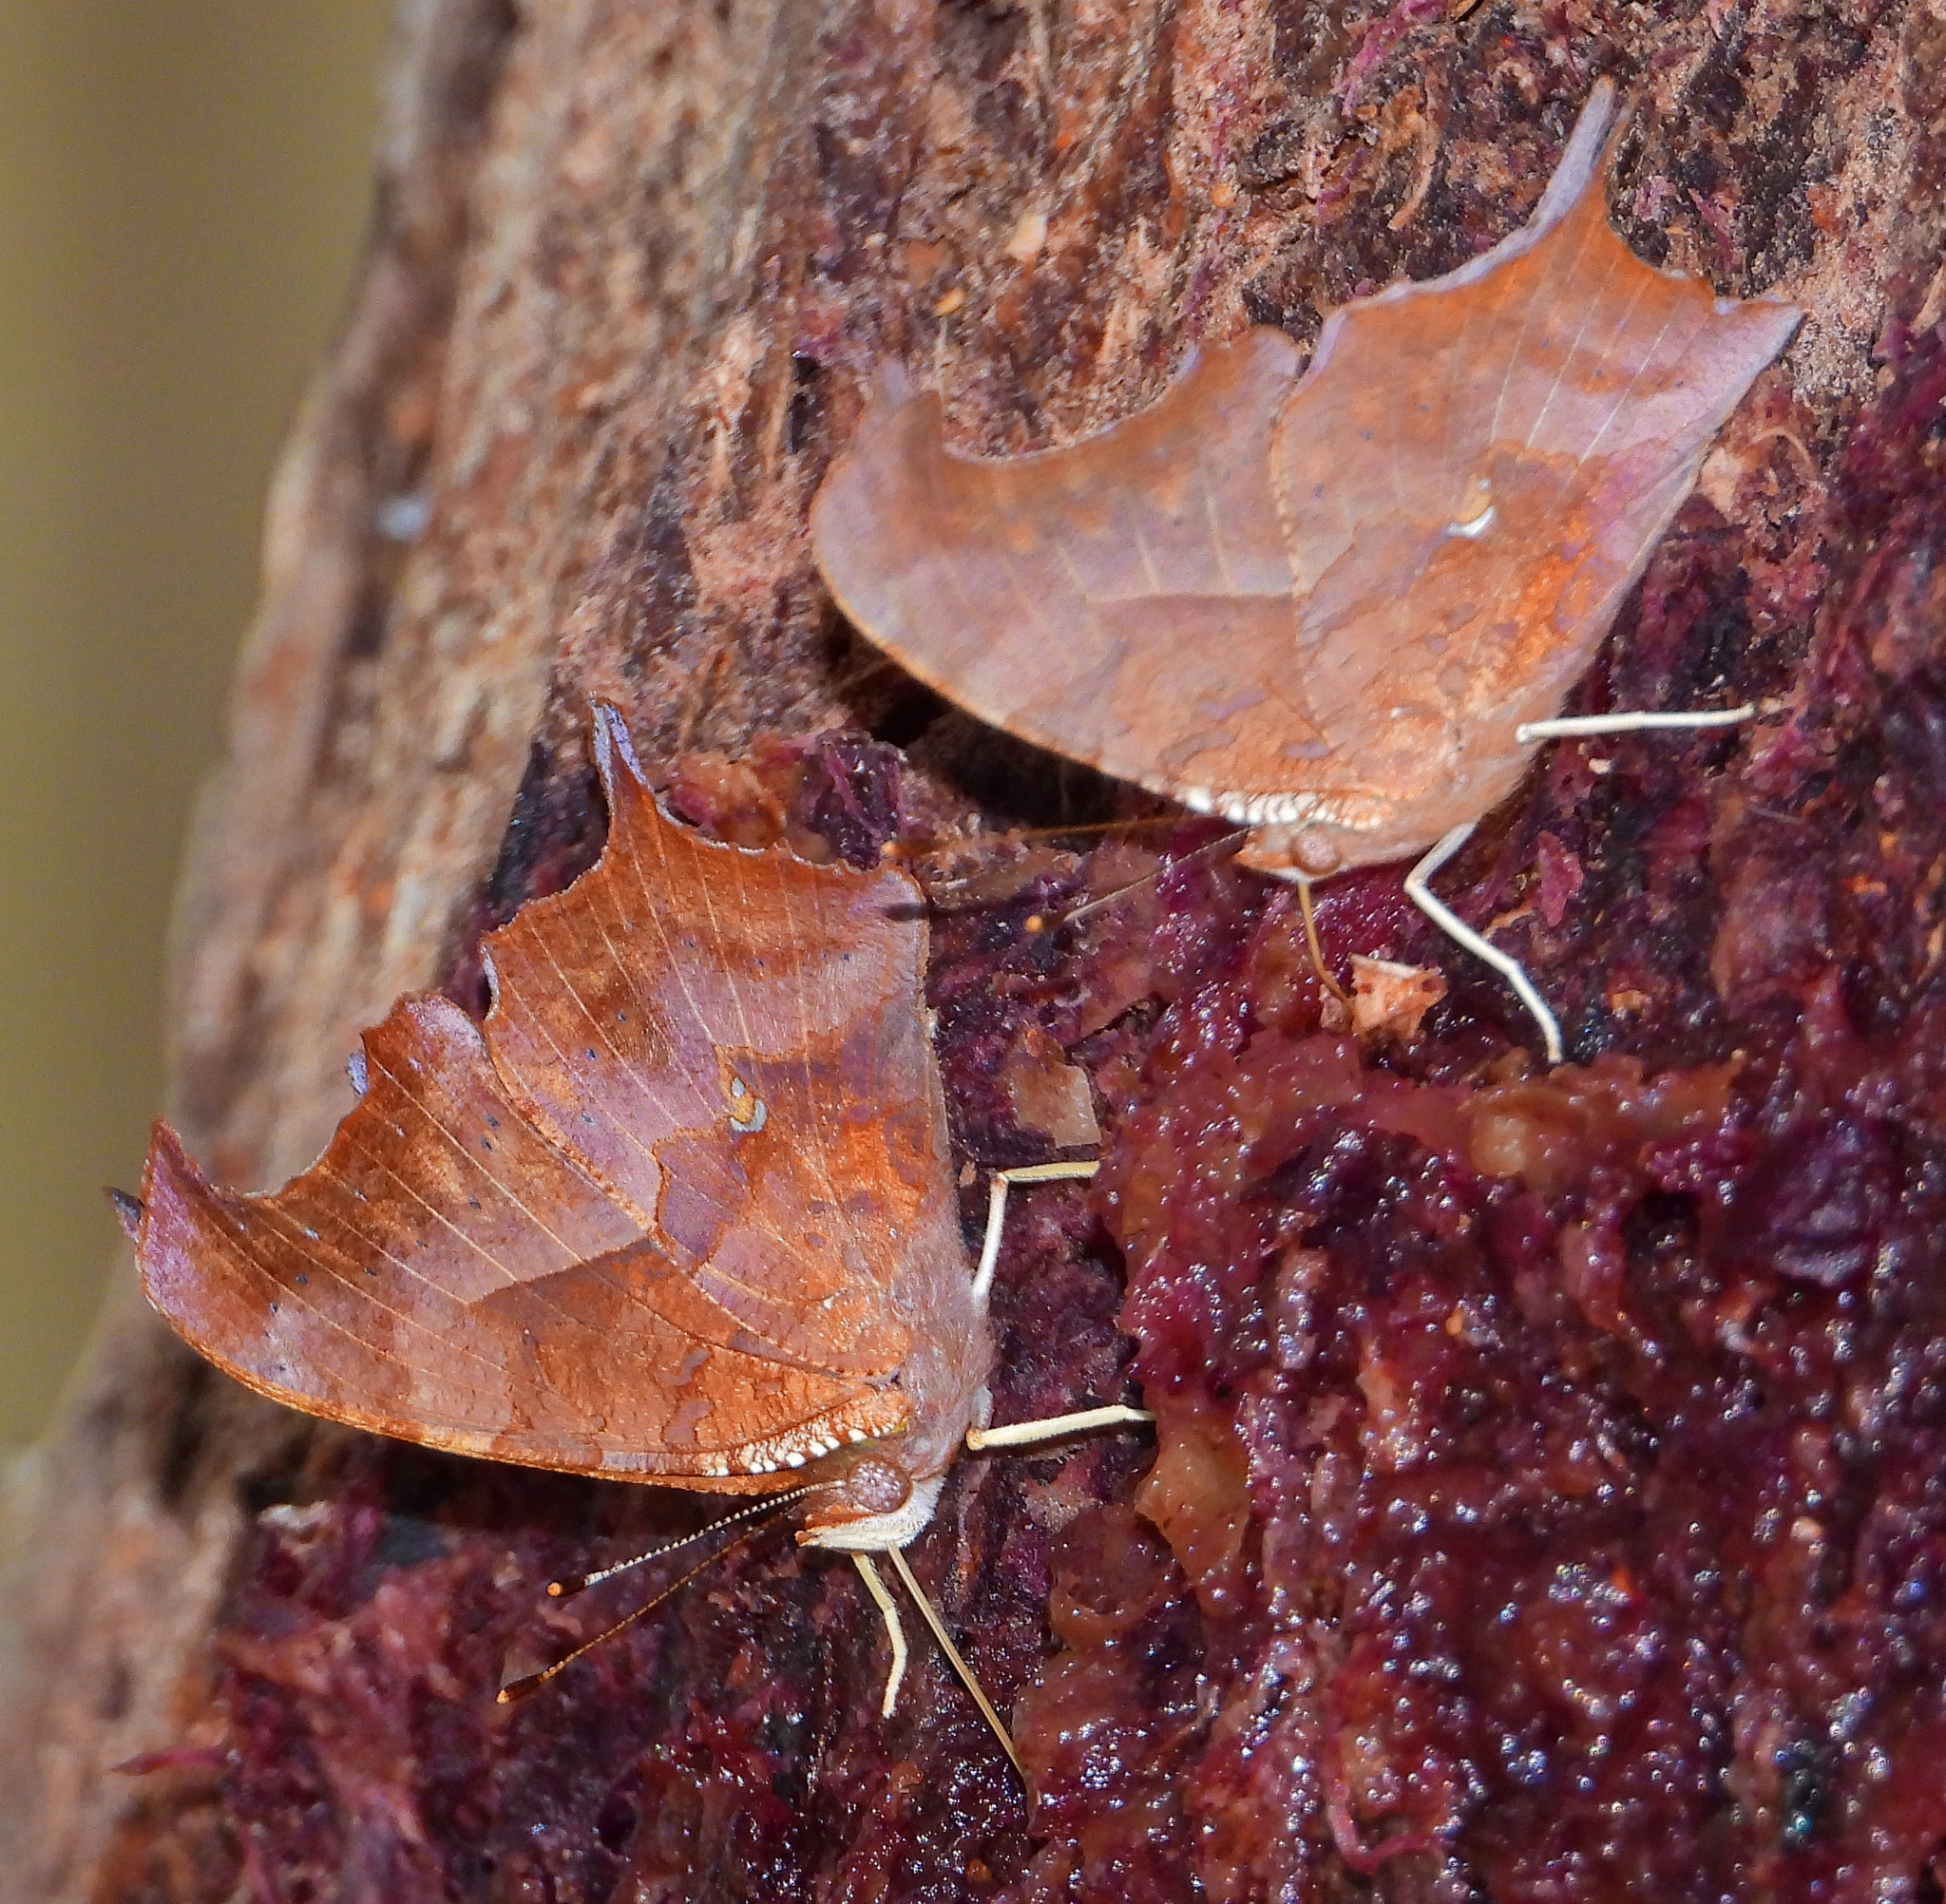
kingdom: Animalia
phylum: Arthropoda
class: Insecta
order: Lepidoptera
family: Nymphalidae
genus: Polygonia
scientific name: Polygonia interrogationis
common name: Question mark
